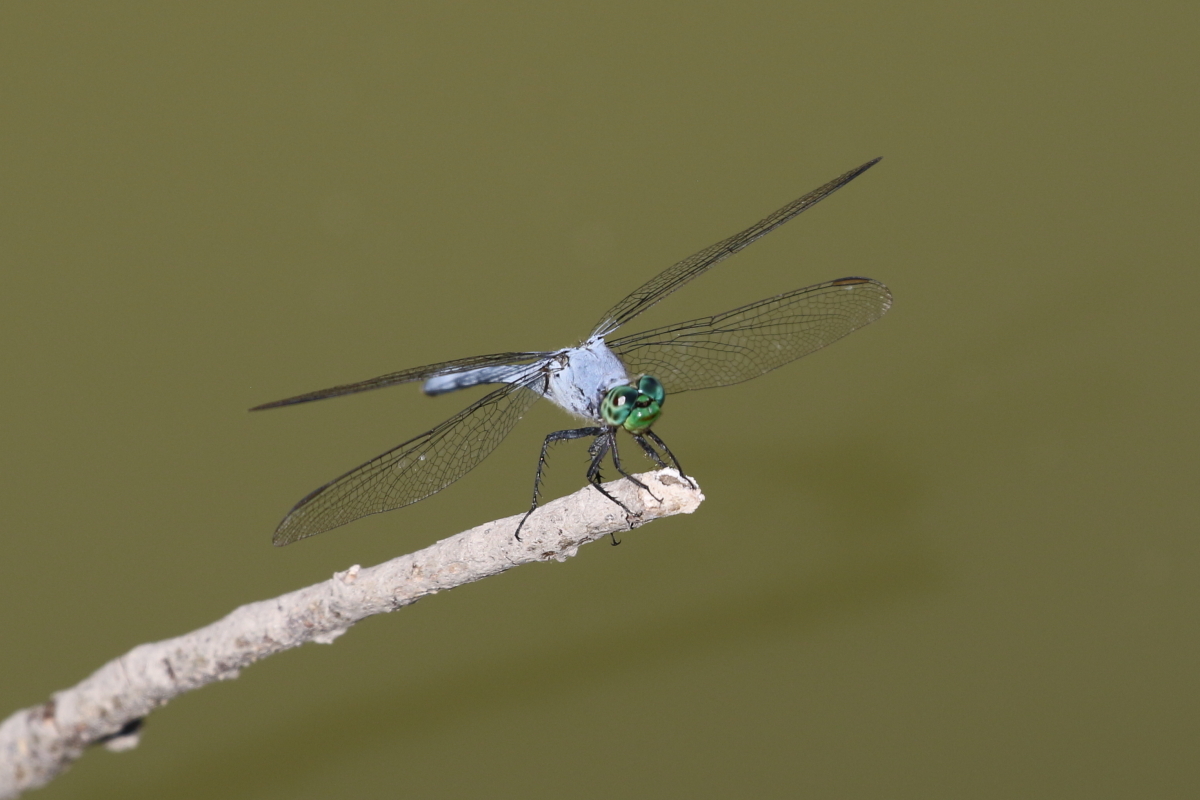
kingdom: Animalia
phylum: Arthropoda
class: Insecta
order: Odonata
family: Libellulidae
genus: Erythemis
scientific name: Erythemis simplicicollis
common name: Eastern pondhawk
